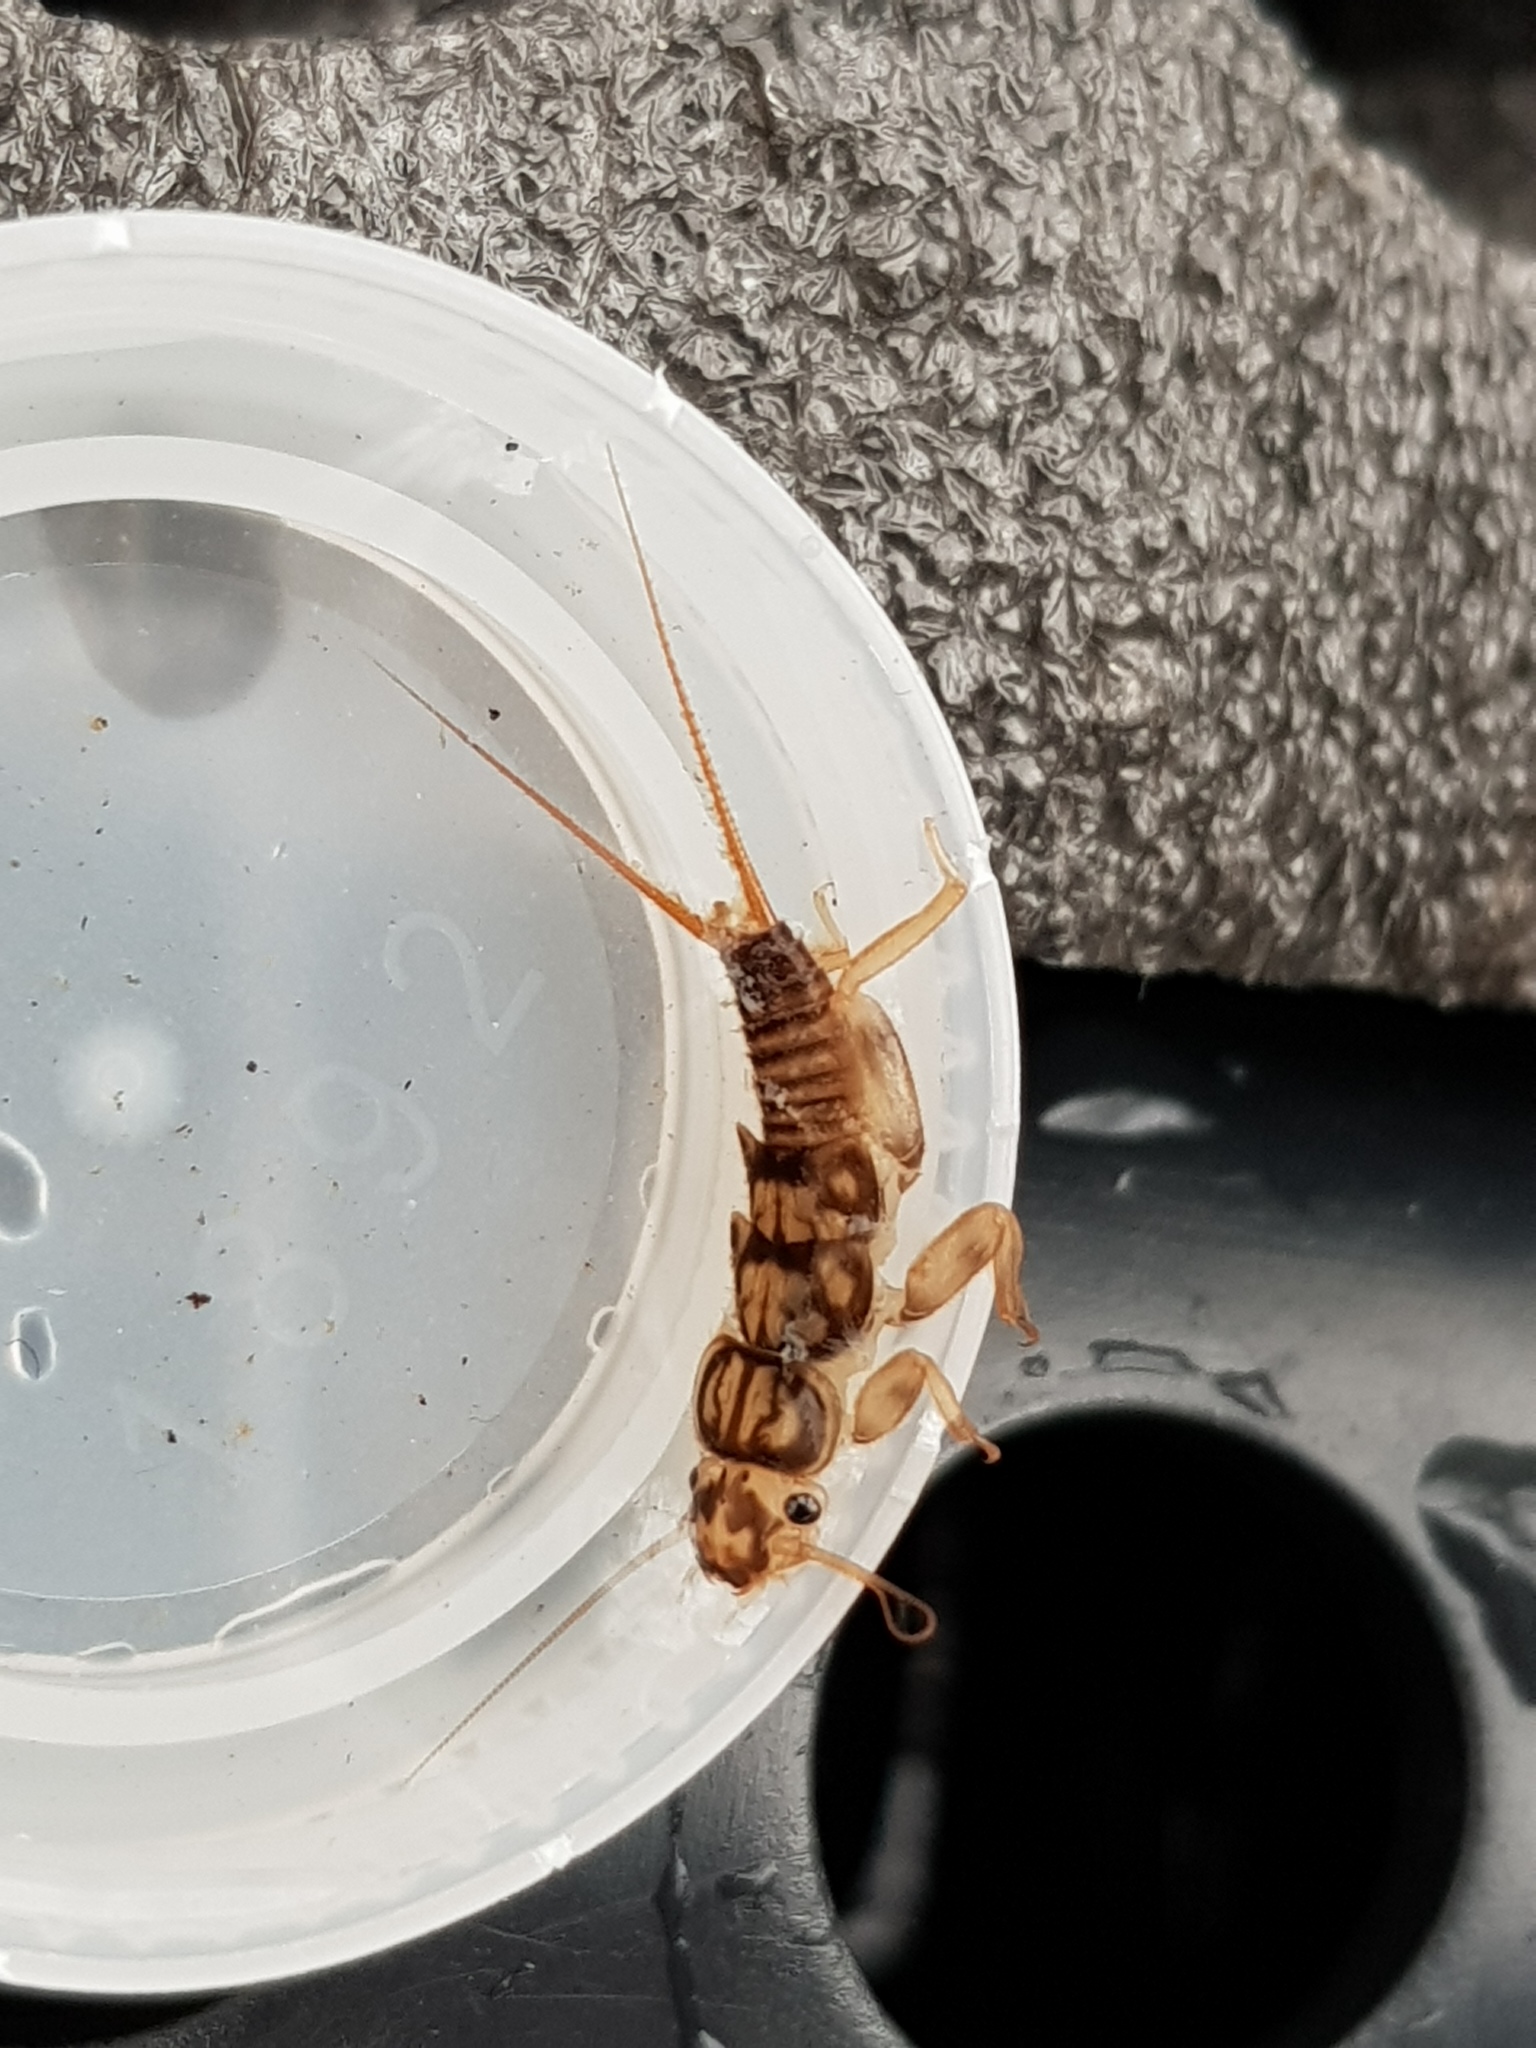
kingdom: Animalia
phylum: Arthropoda
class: Insecta
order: Plecoptera
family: Perlidae
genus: Eccoptura
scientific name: Eccoptura xanthenes
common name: Yellow stone
